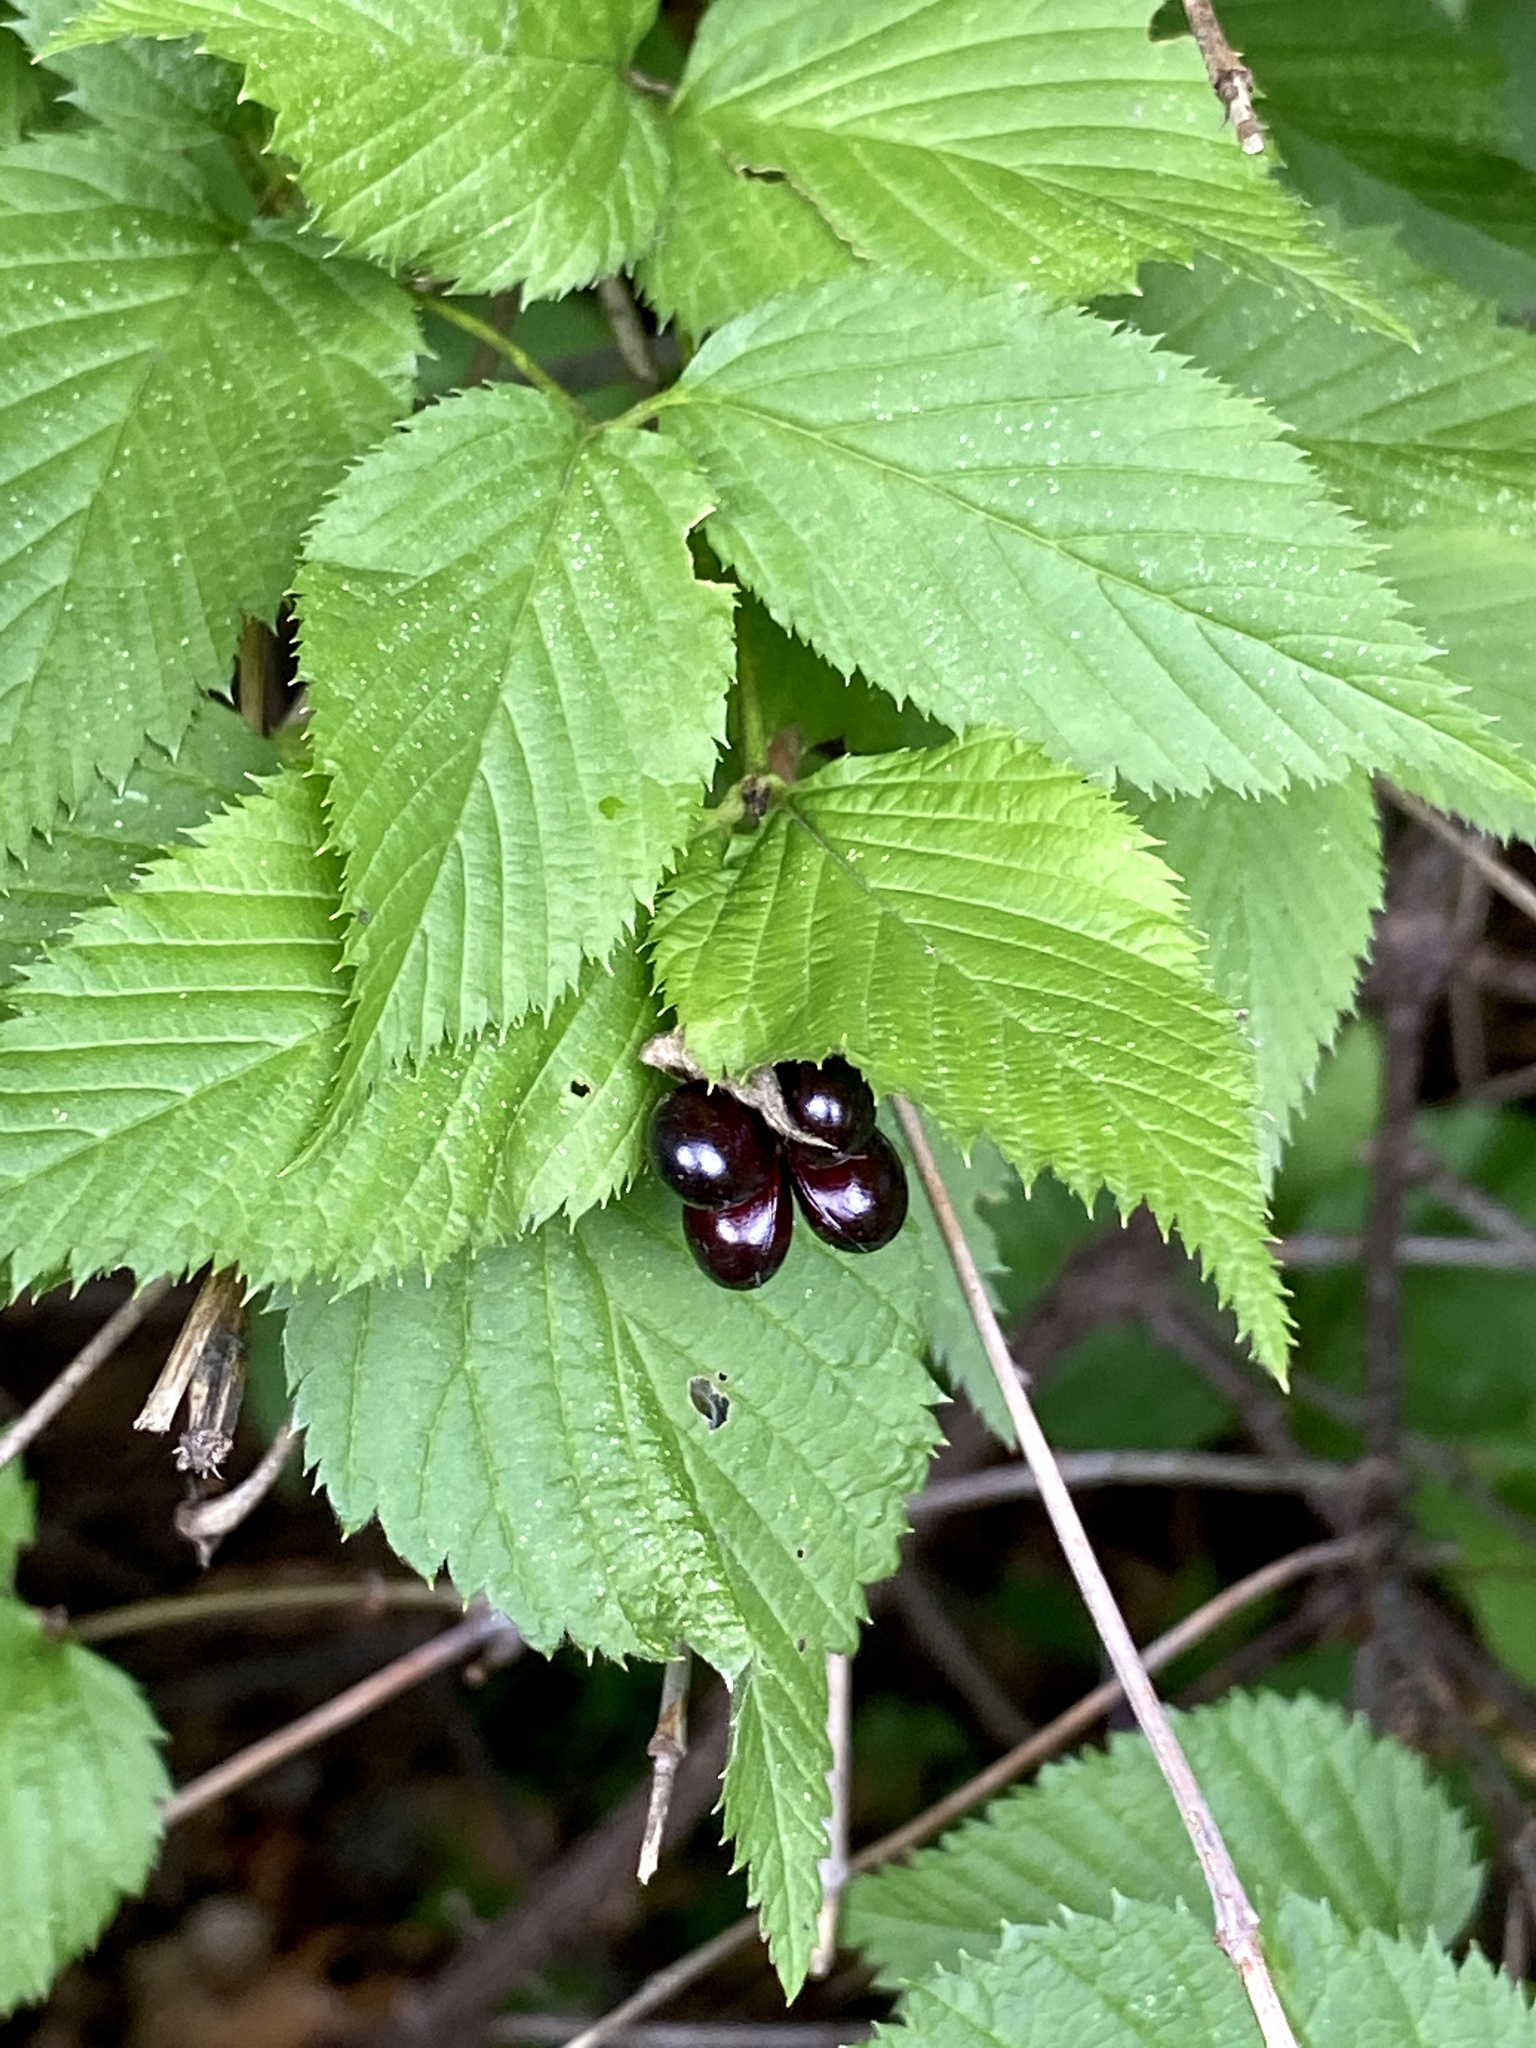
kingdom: Plantae
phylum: Tracheophyta
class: Magnoliopsida
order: Rosales
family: Rosaceae
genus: Rhodotypos
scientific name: Rhodotypos scandens
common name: Jetbead
